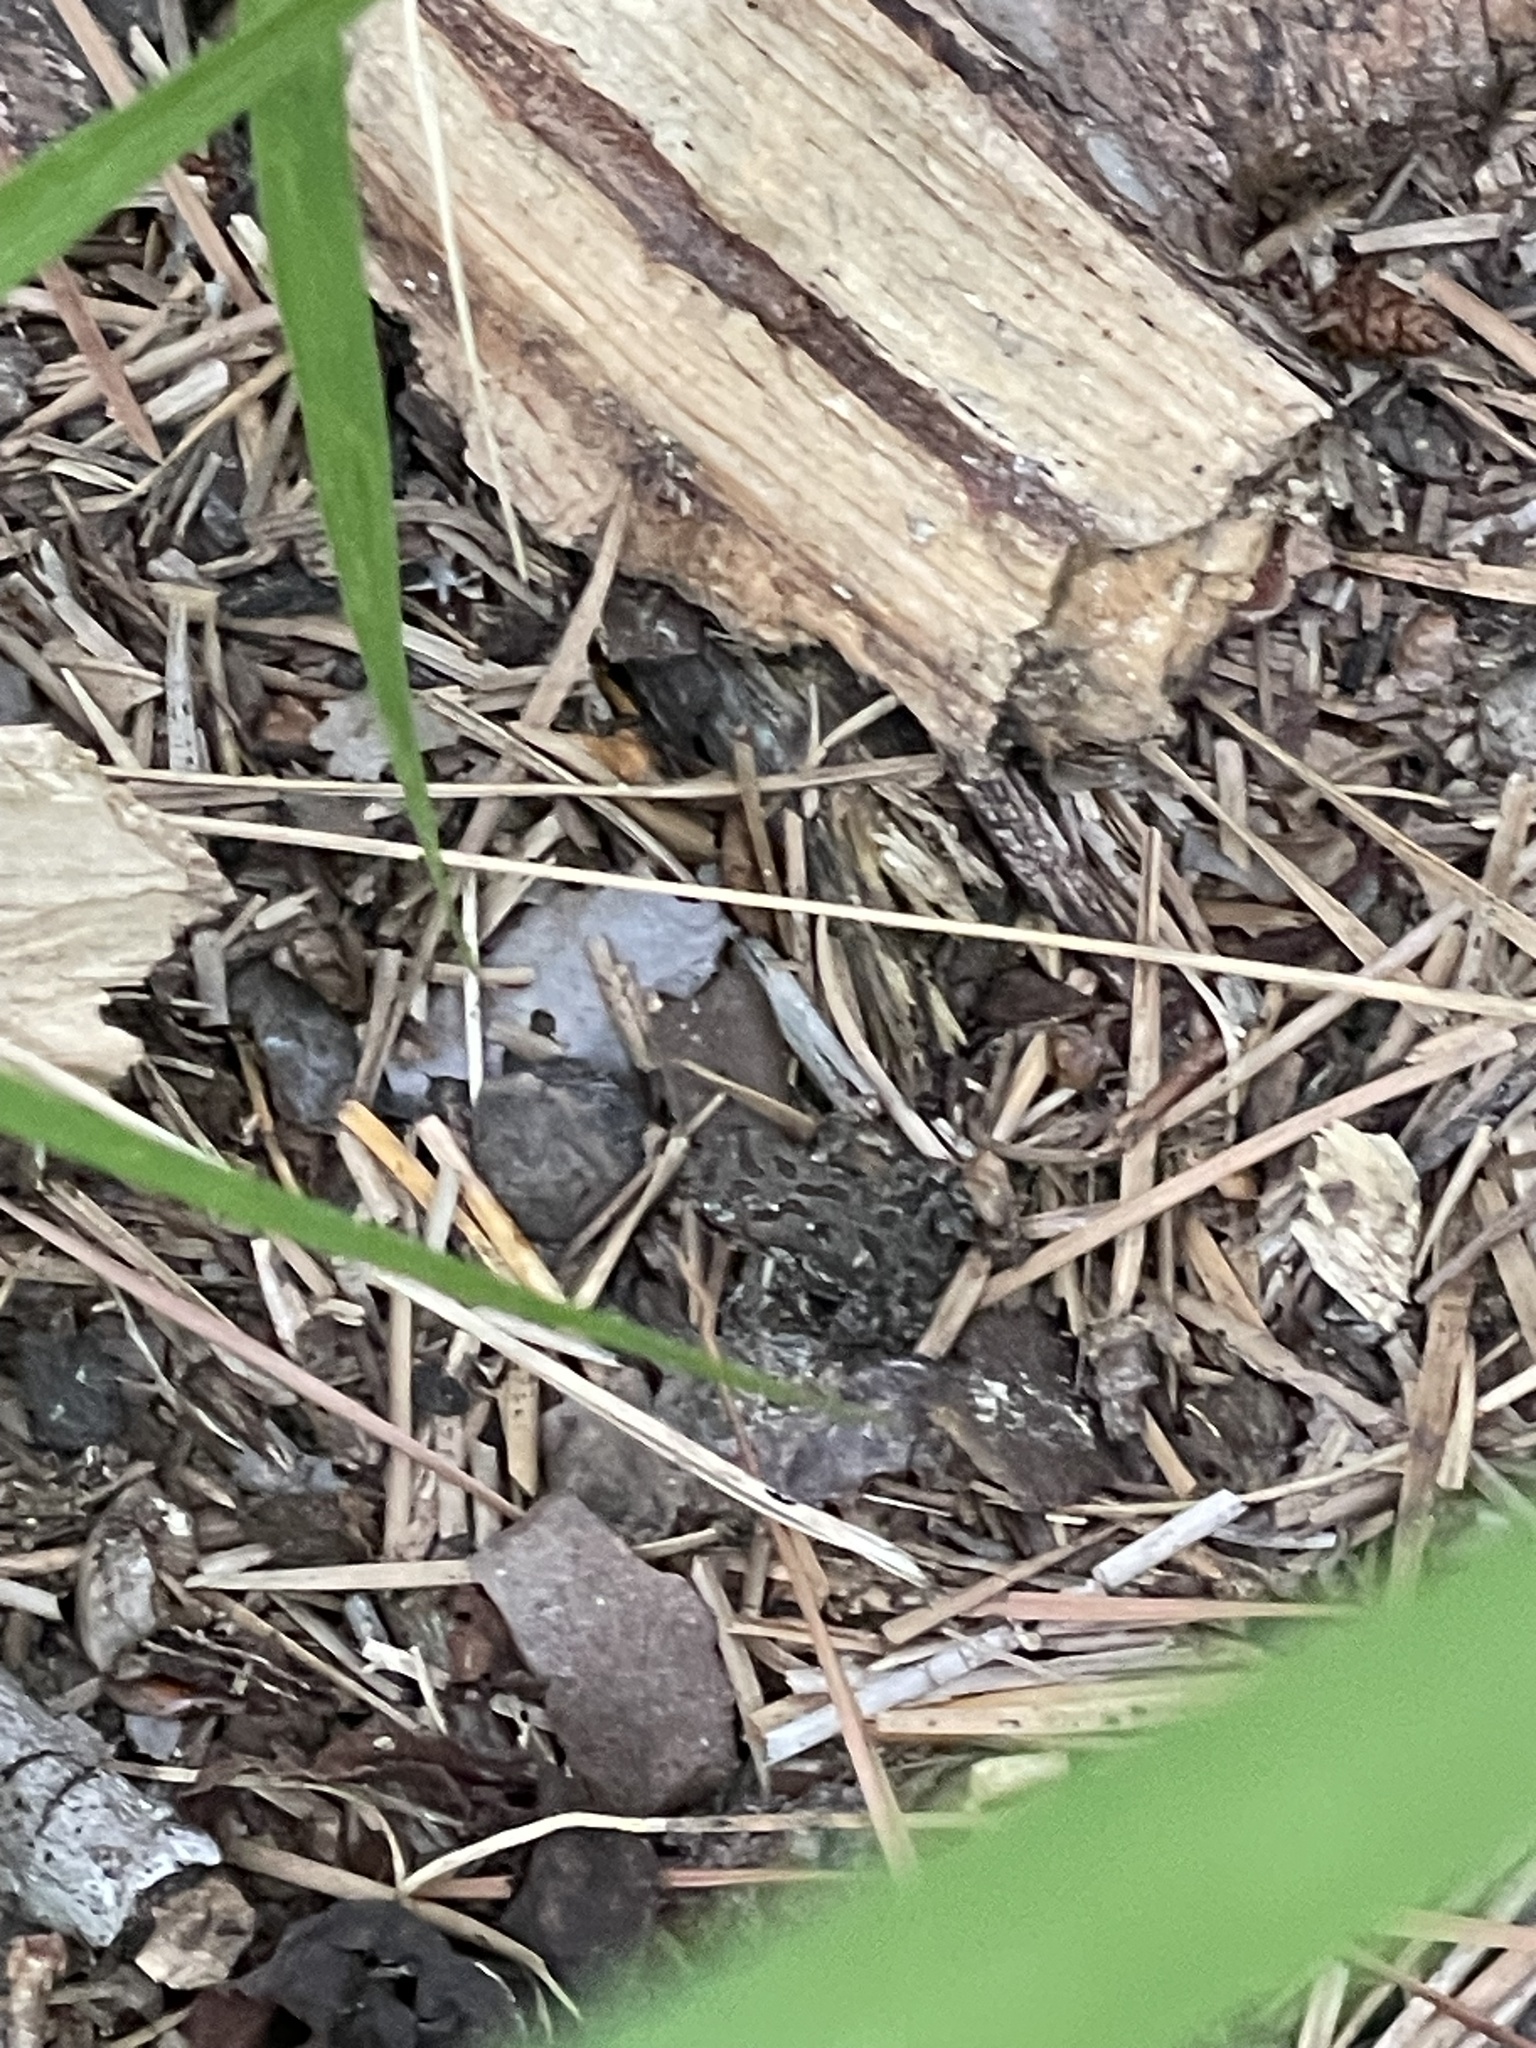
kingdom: Animalia
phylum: Chordata
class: Amphibia
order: Anura
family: Bufonidae
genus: Anaxyrus
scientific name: Anaxyrus fowleri
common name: Fowler's toad
